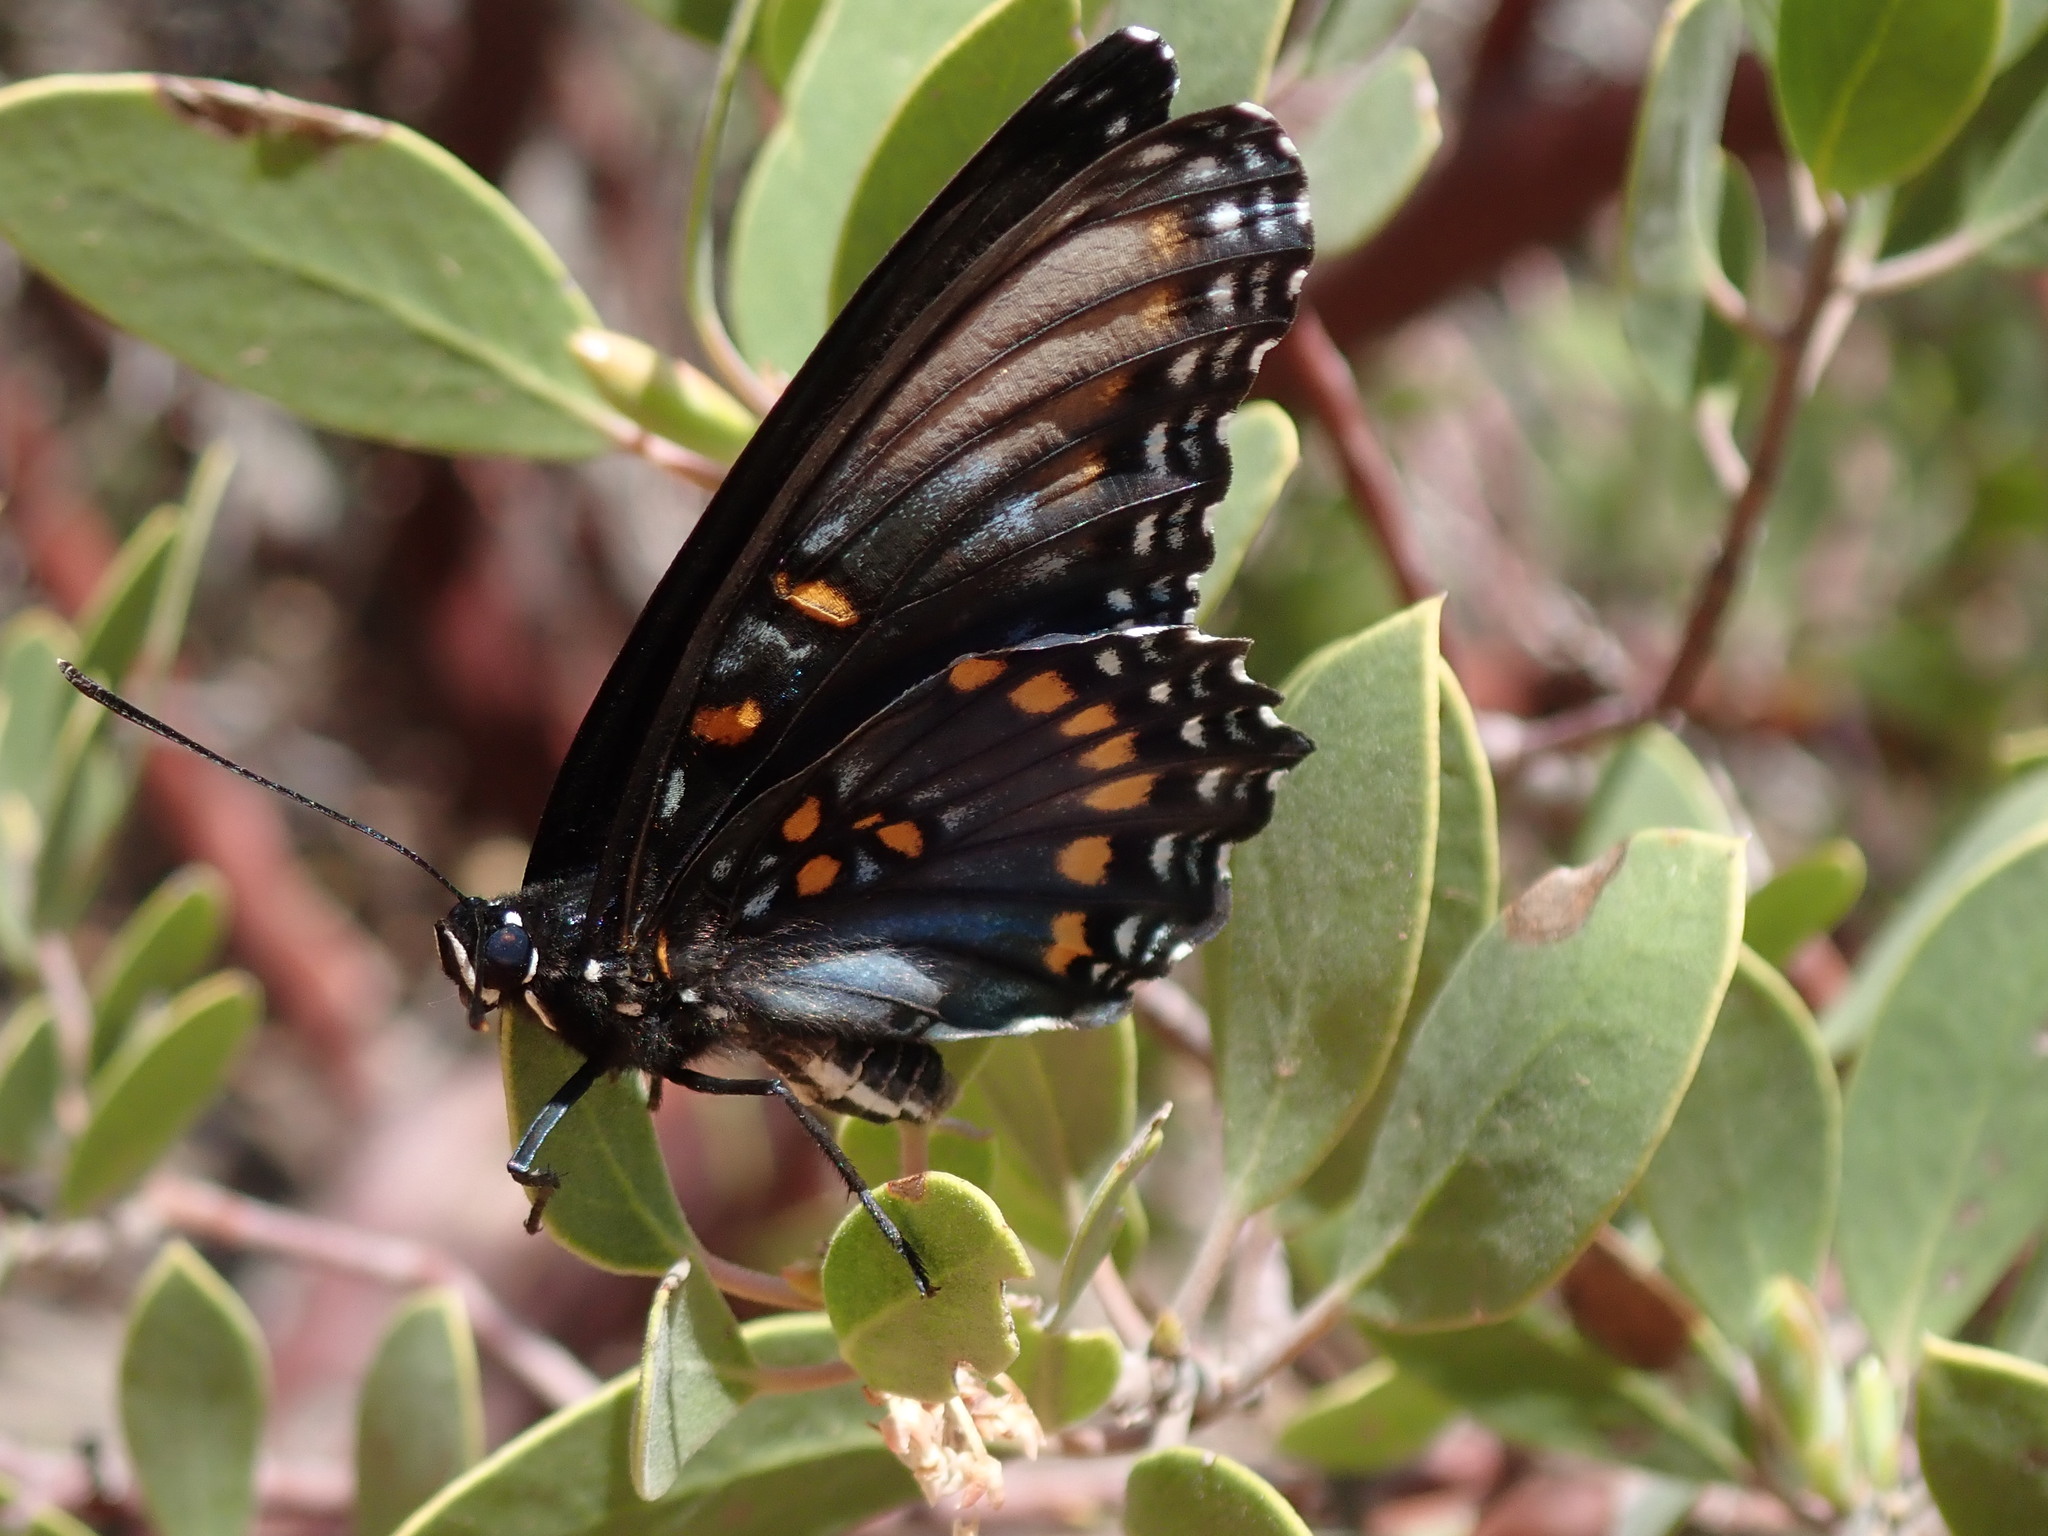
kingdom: Animalia
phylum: Arthropoda
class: Insecta
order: Lepidoptera
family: Nymphalidae
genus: Limenitis
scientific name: Limenitis arthemis
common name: Red-spotted admiral
